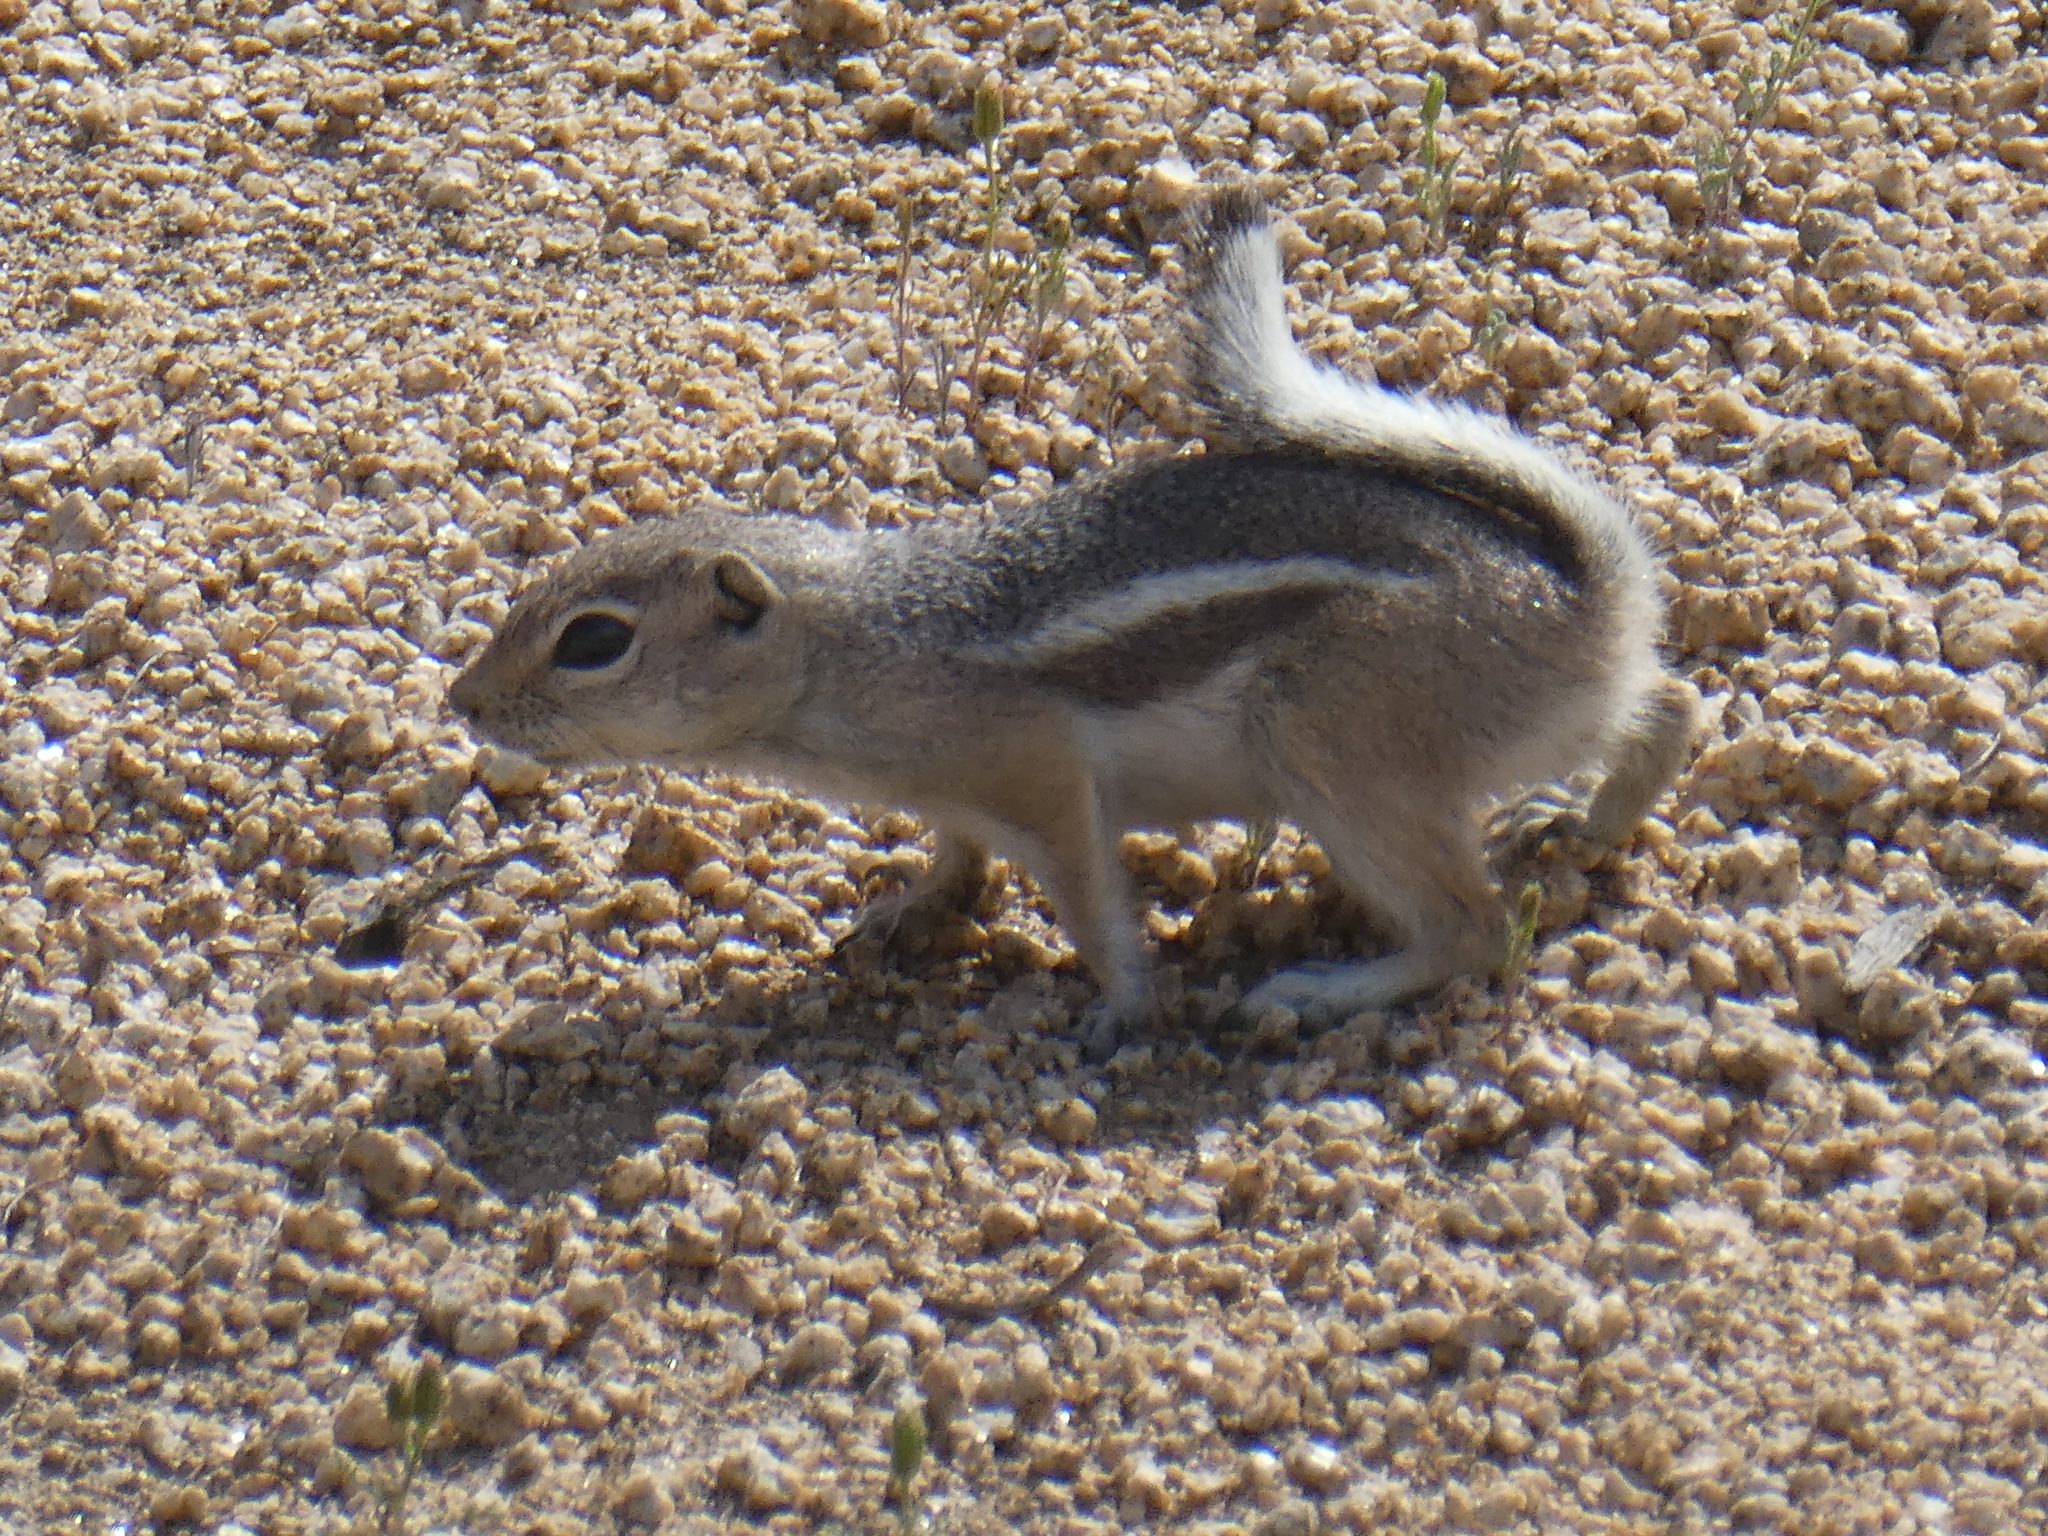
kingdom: Animalia
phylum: Chordata
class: Mammalia
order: Rodentia
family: Sciuridae
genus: Ammospermophilus
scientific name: Ammospermophilus leucurus
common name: White-tailed antelope squirrel
